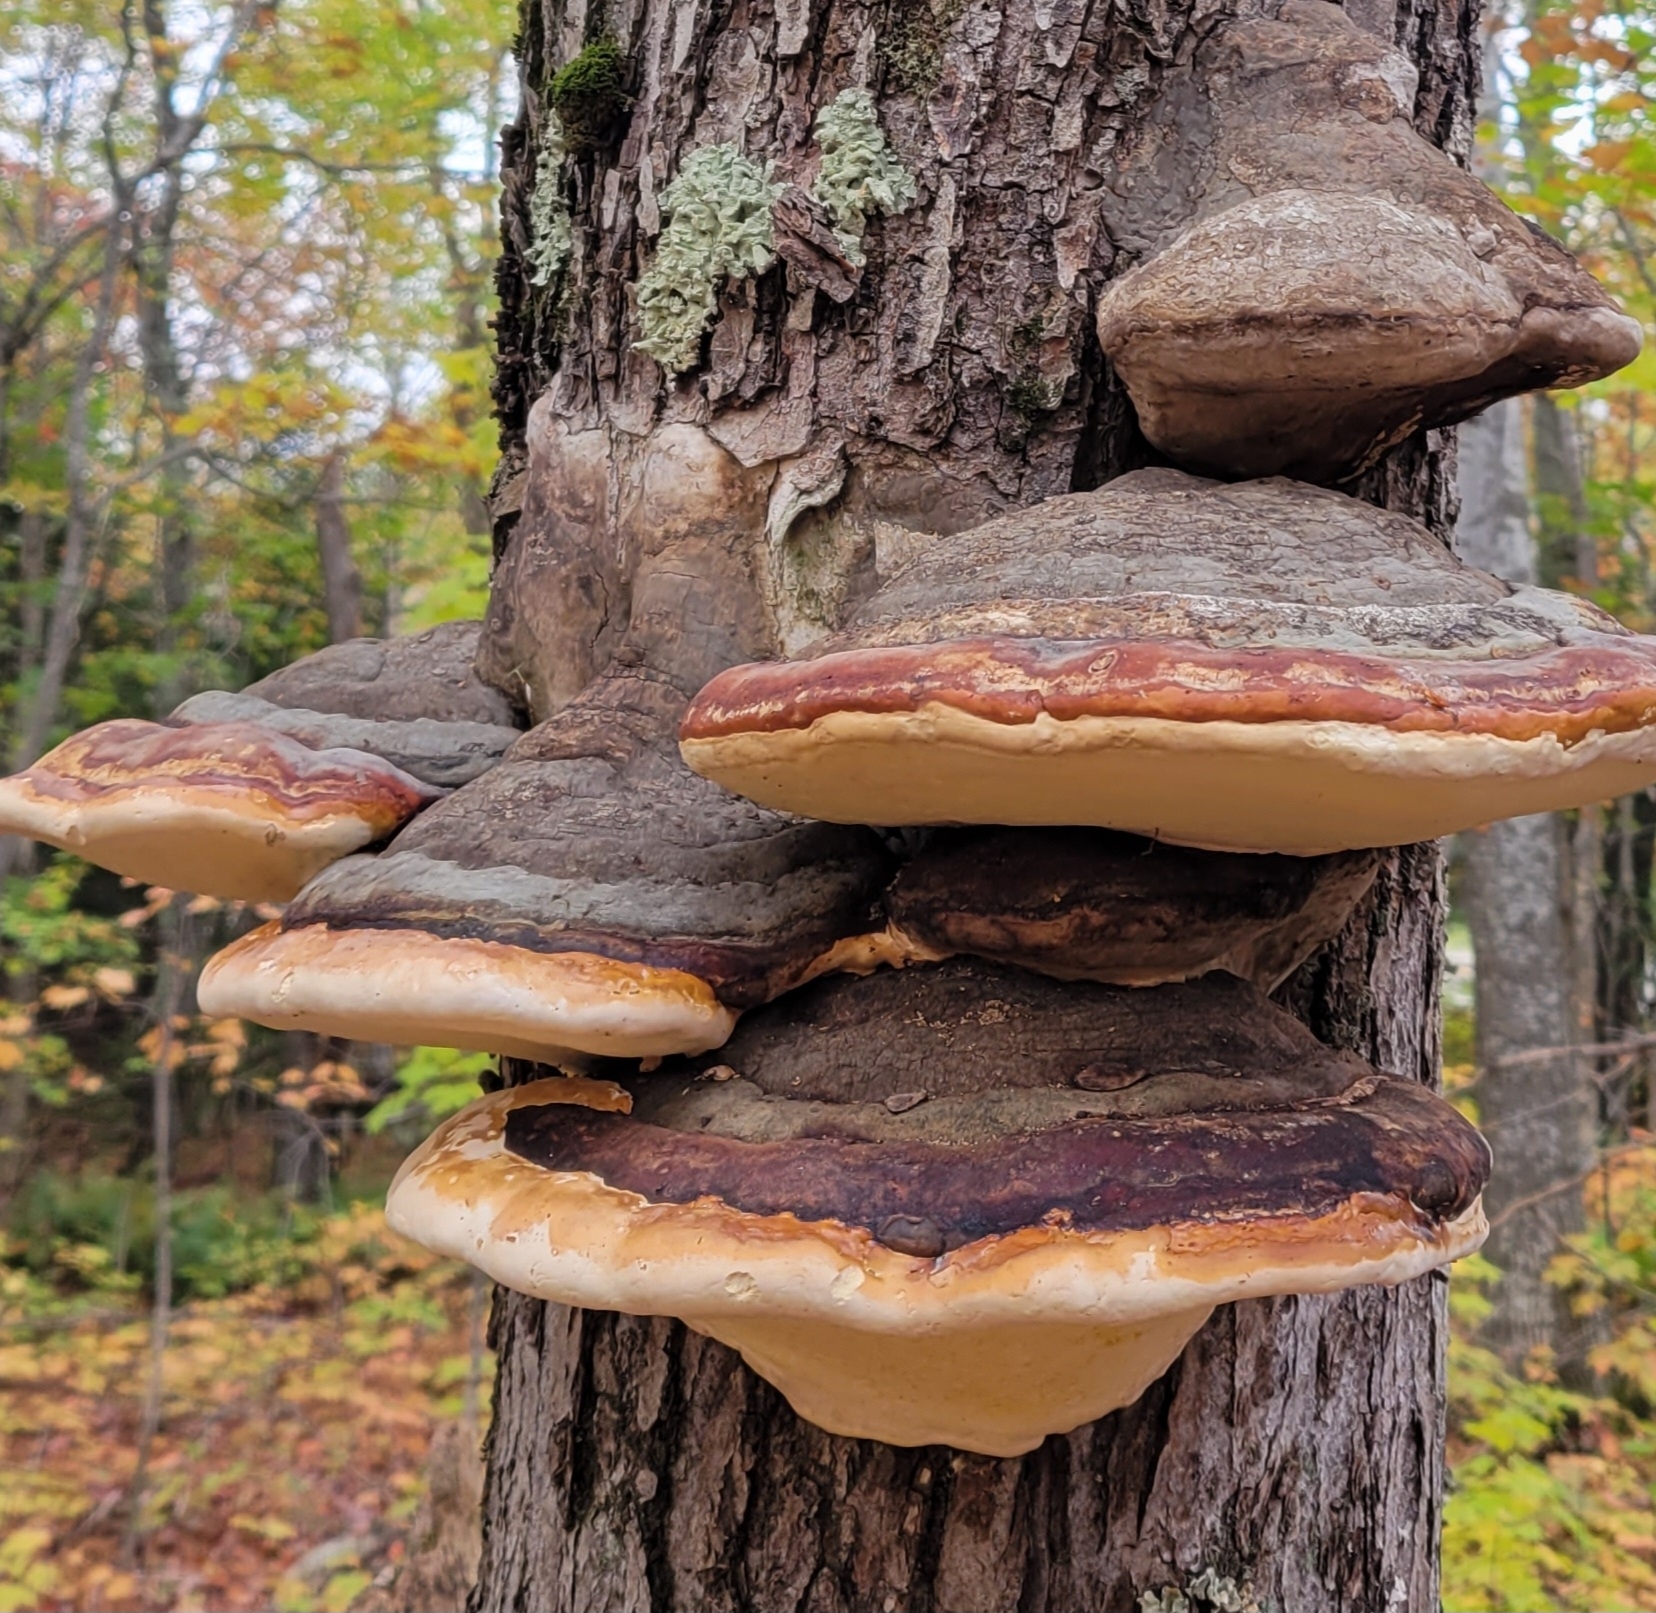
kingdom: Fungi
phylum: Basidiomycota
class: Agaricomycetes
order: Polyporales
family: Fomitopsidaceae
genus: Fomitopsis
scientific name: Fomitopsis mounceae
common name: Northern red belt
